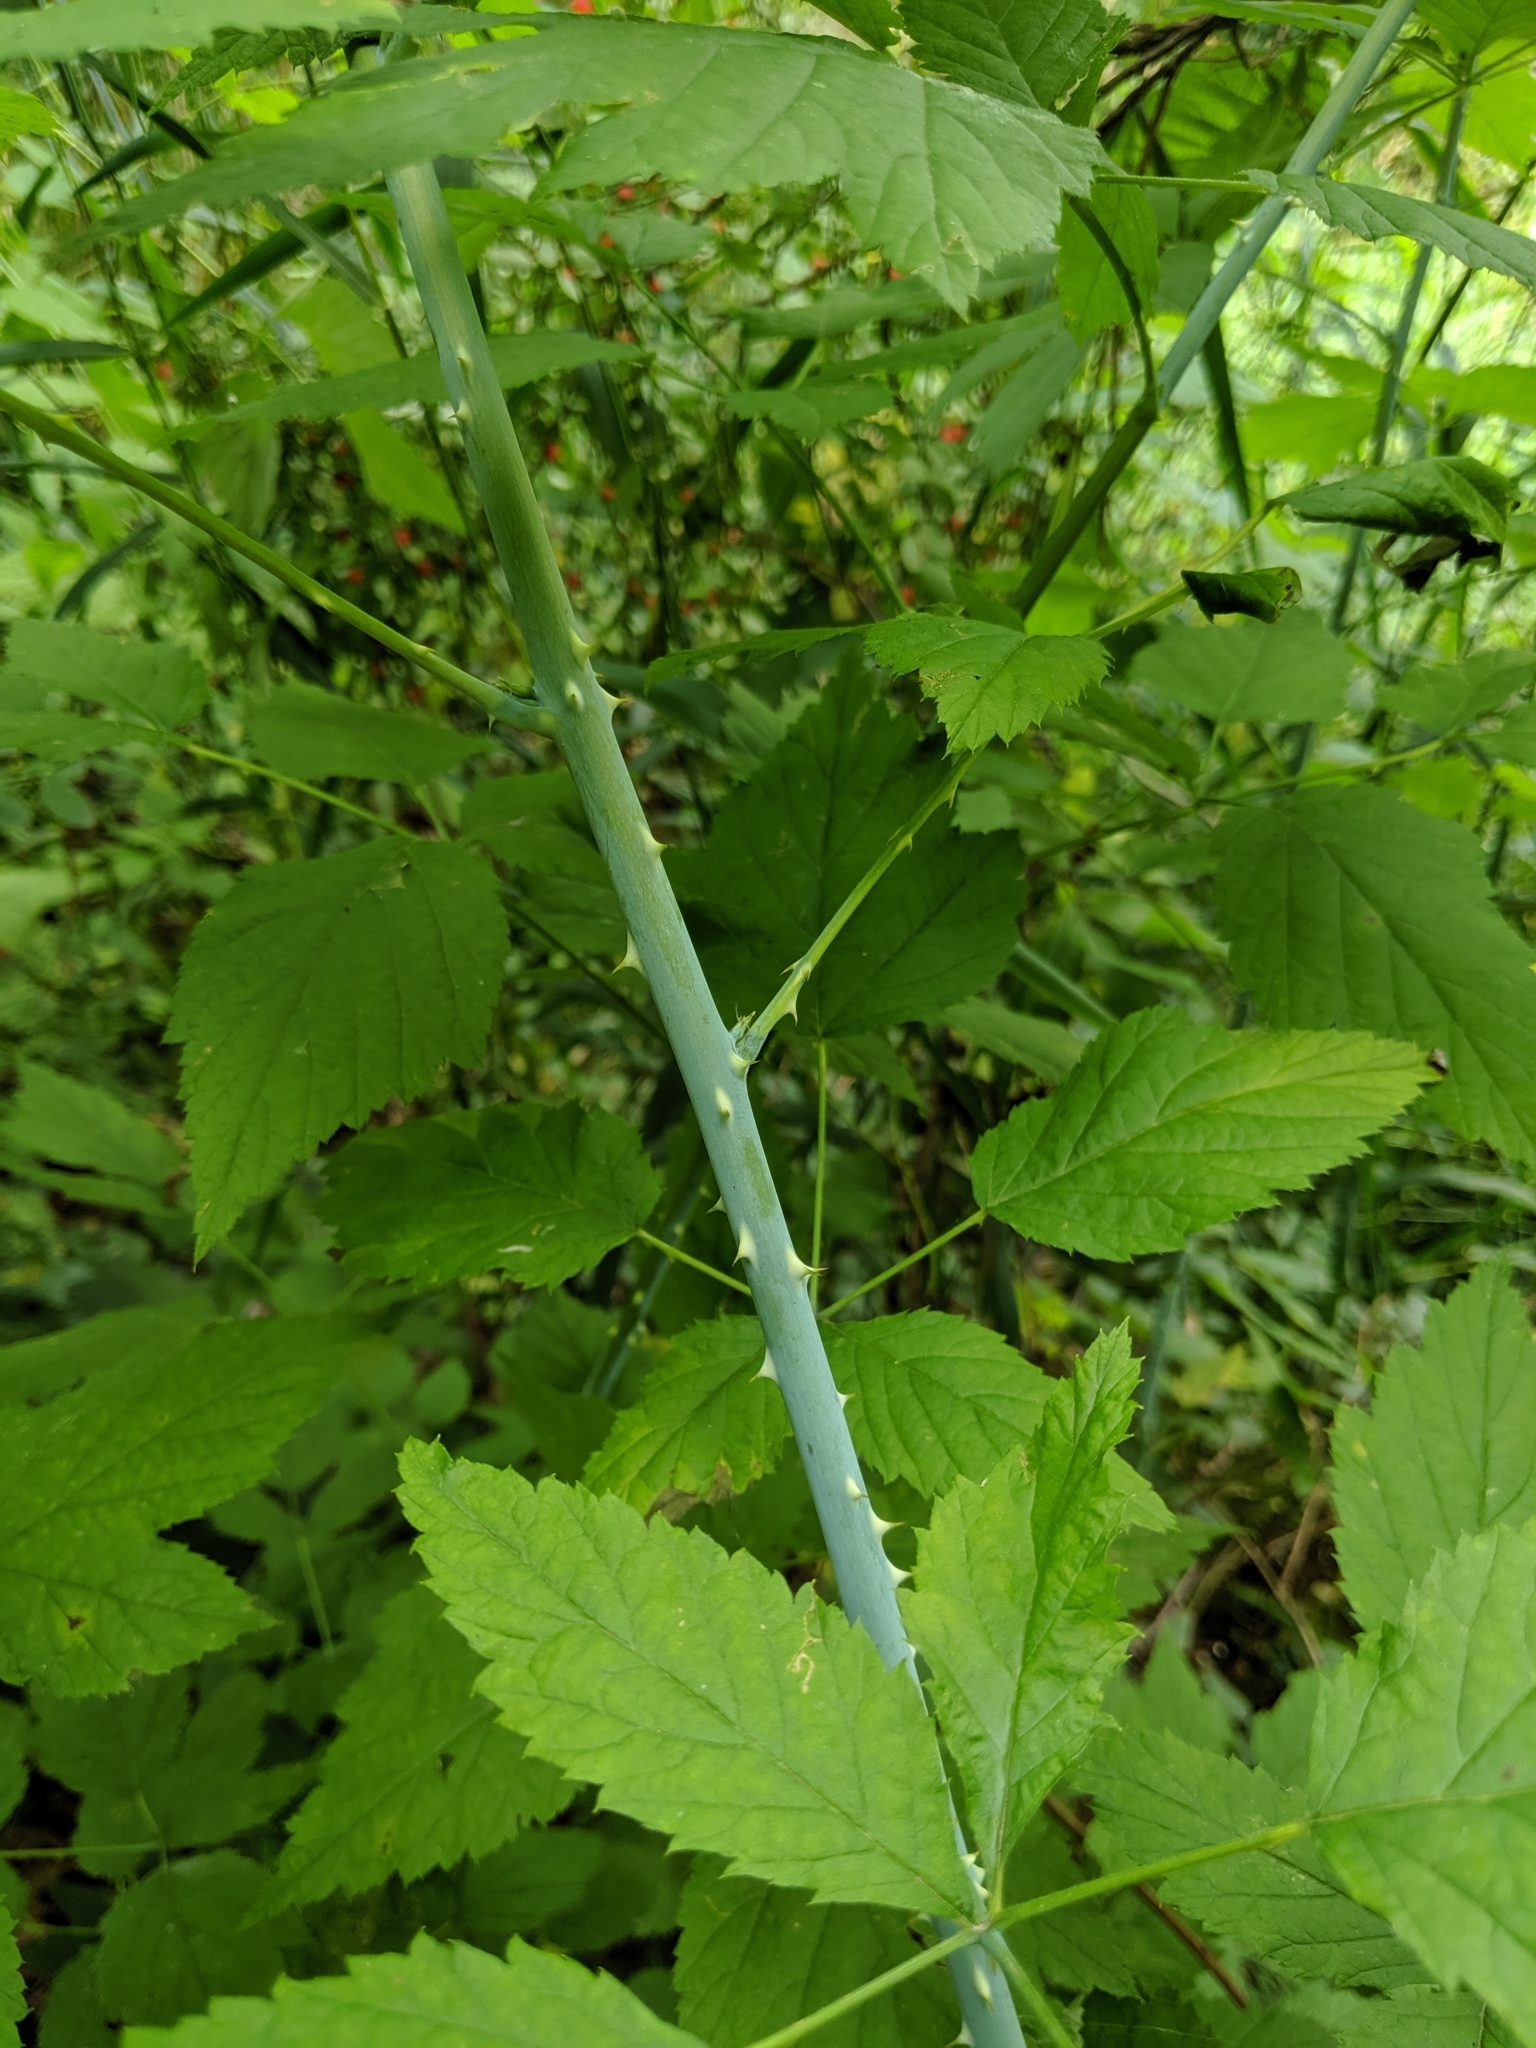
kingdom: Plantae
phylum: Tracheophyta
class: Magnoliopsida
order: Rosales
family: Rosaceae
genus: Rubus
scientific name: Rubus leucodermis
